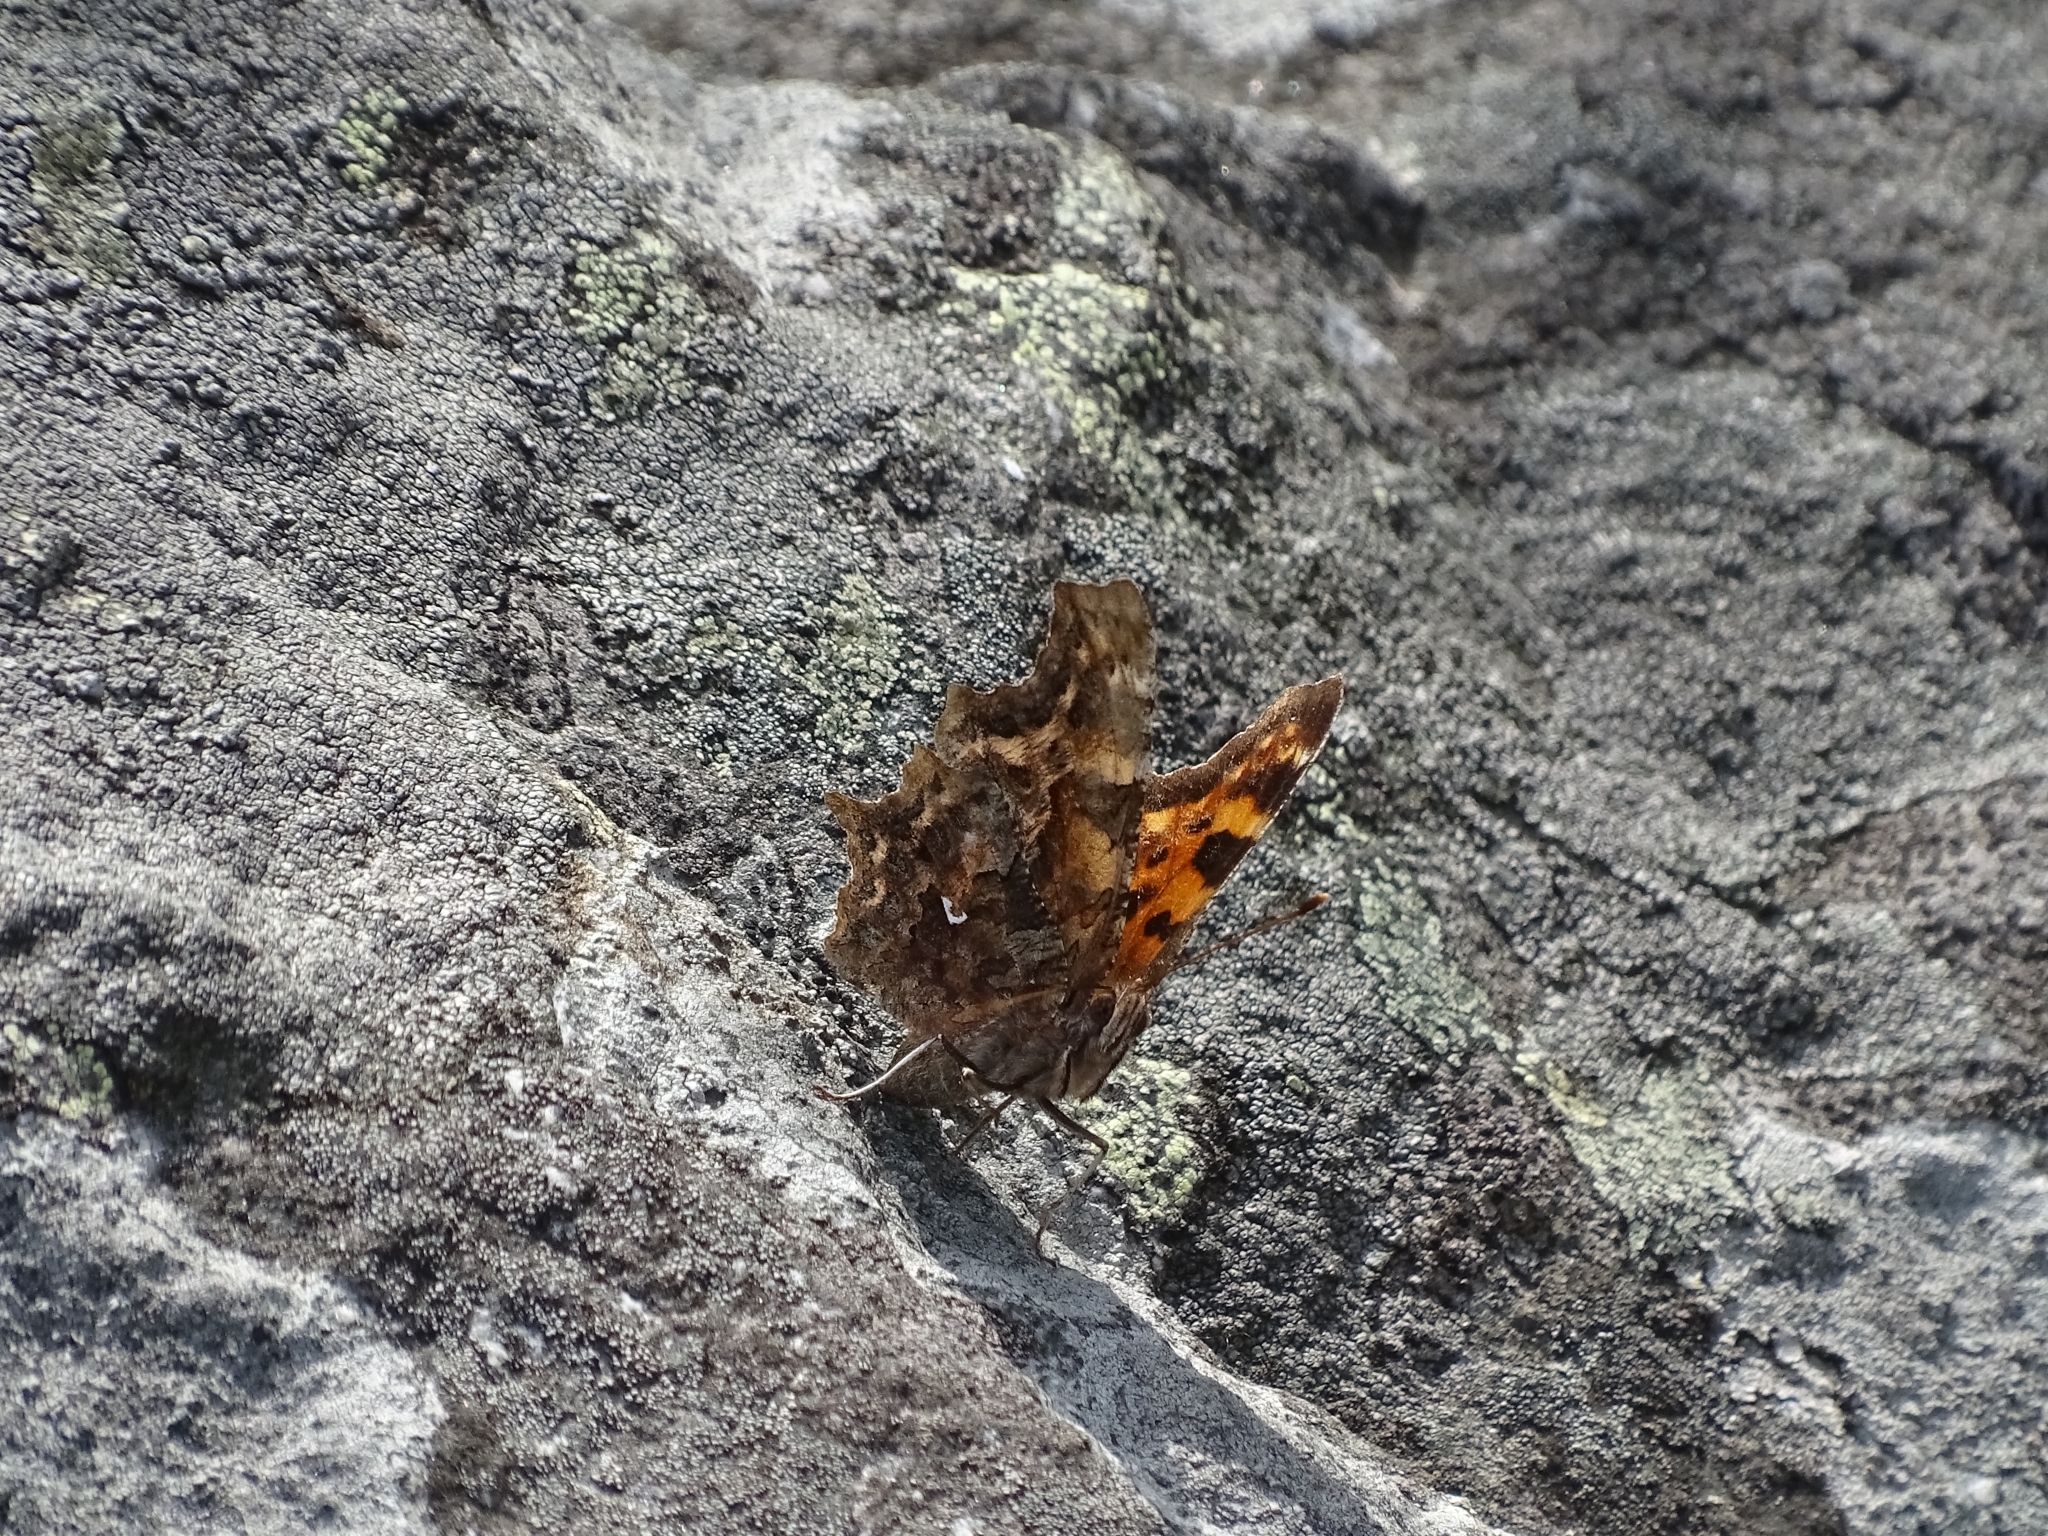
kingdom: Animalia
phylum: Arthropoda
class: Insecta
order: Lepidoptera
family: Nymphalidae
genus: Polygonia
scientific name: Polygonia c-album
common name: Comma
